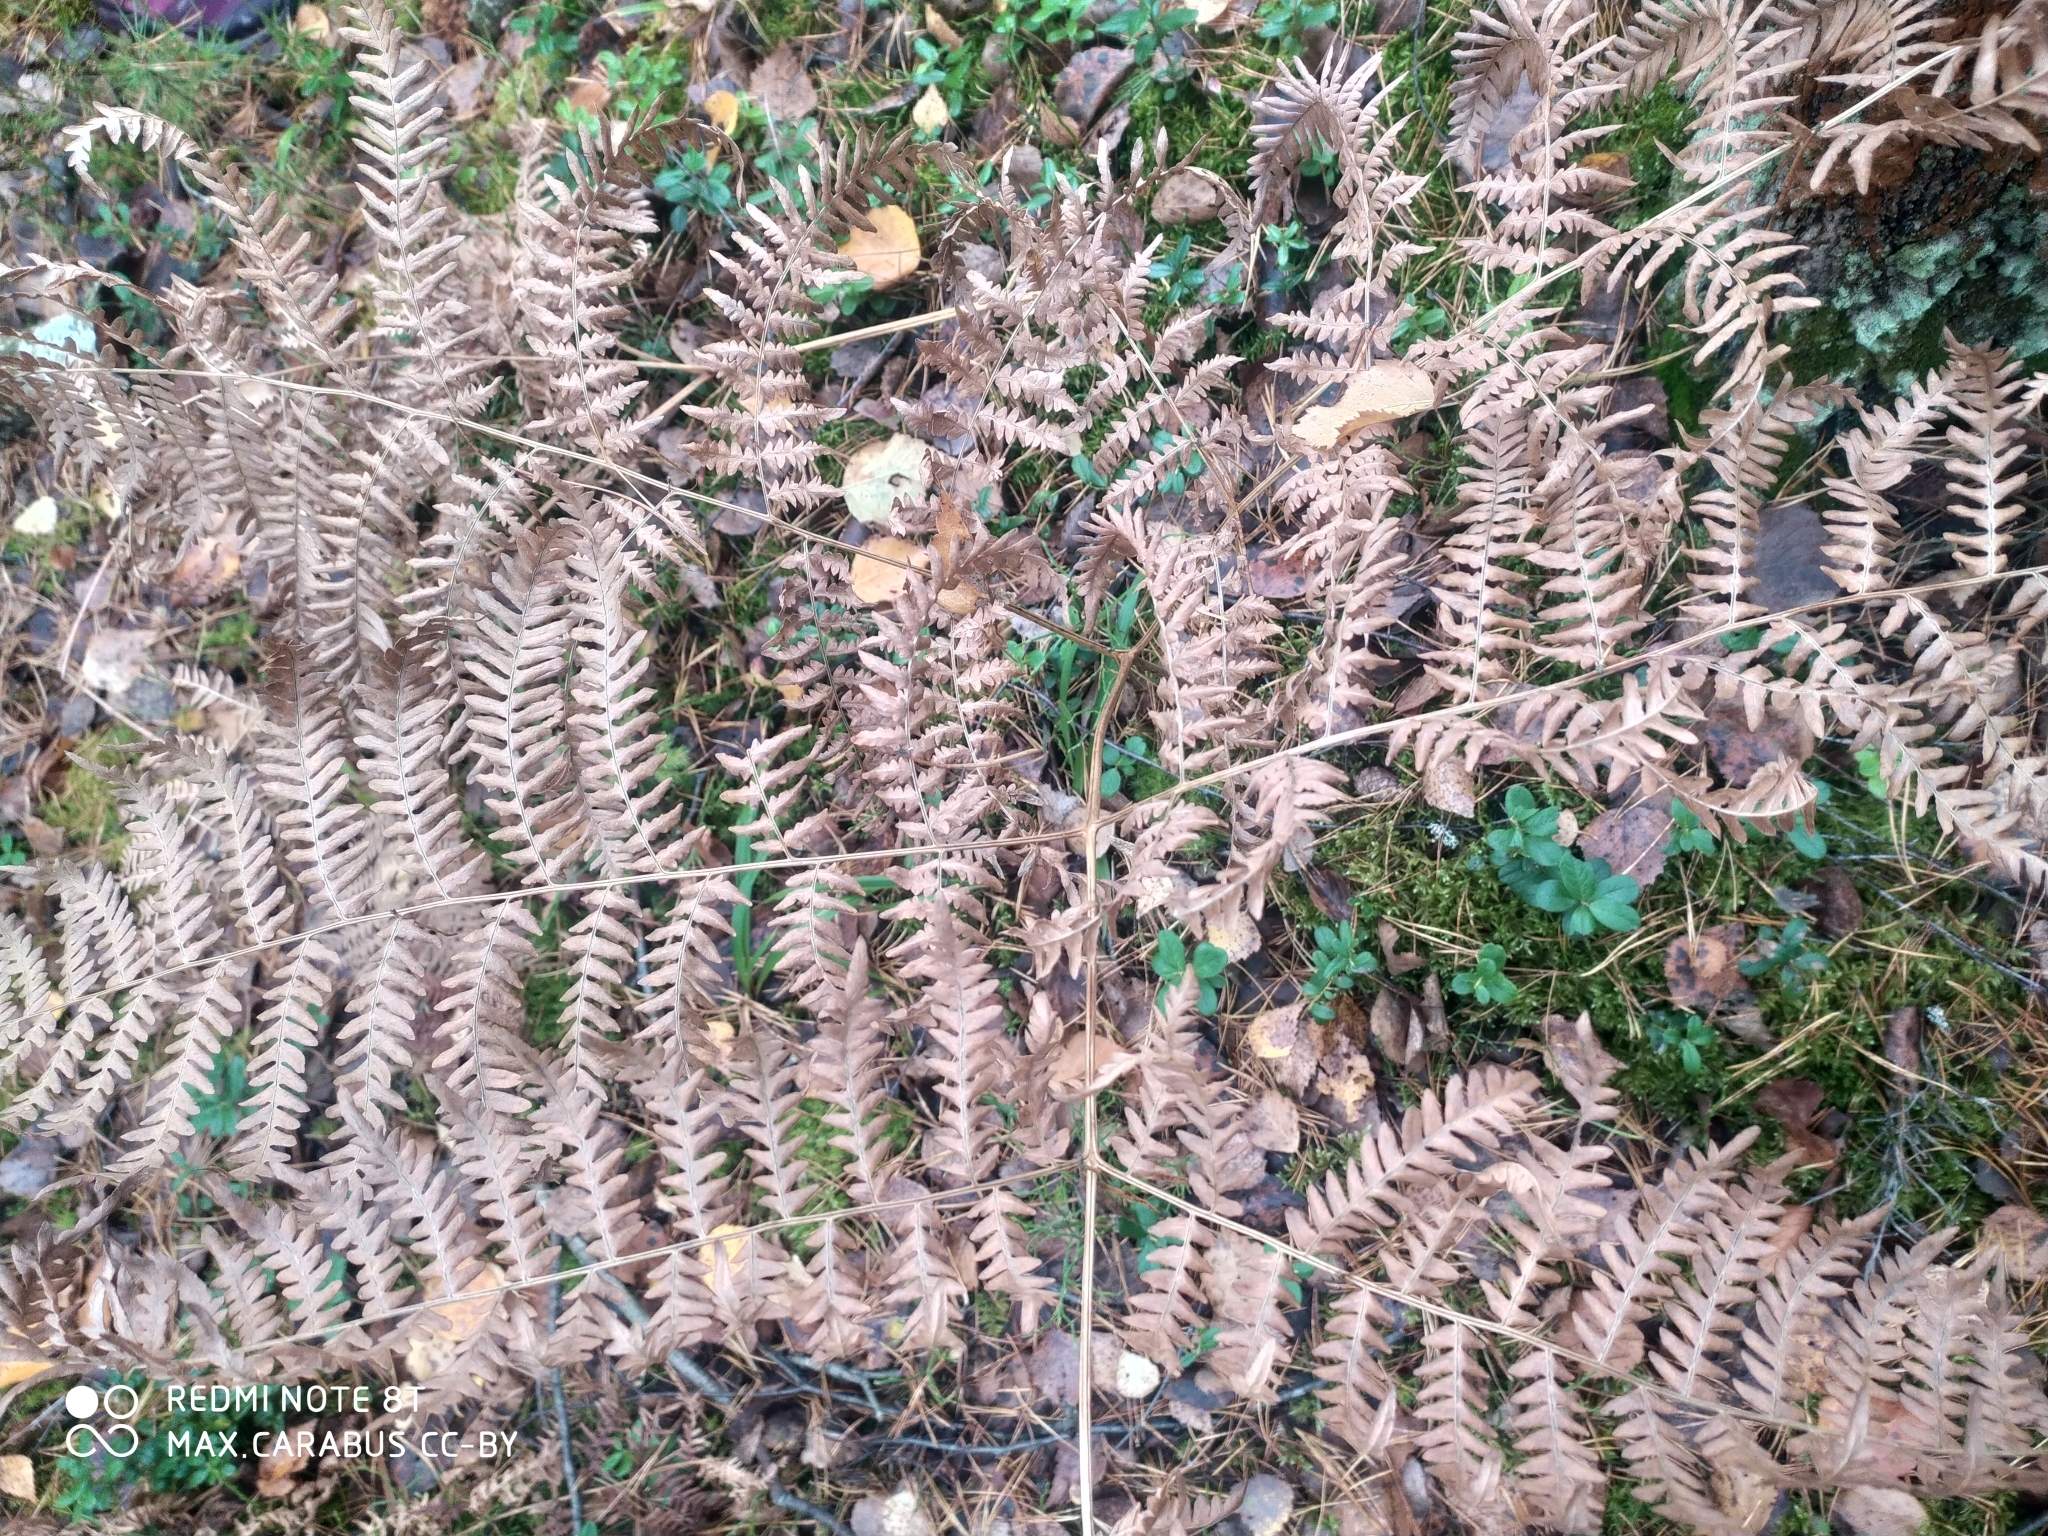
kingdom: Plantae
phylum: Tracheophyta
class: Polypodiopsida
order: Polypodiales
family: Dennstaedtiaceae
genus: Pteridium
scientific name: Pteridium aquilinum
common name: Bracken
